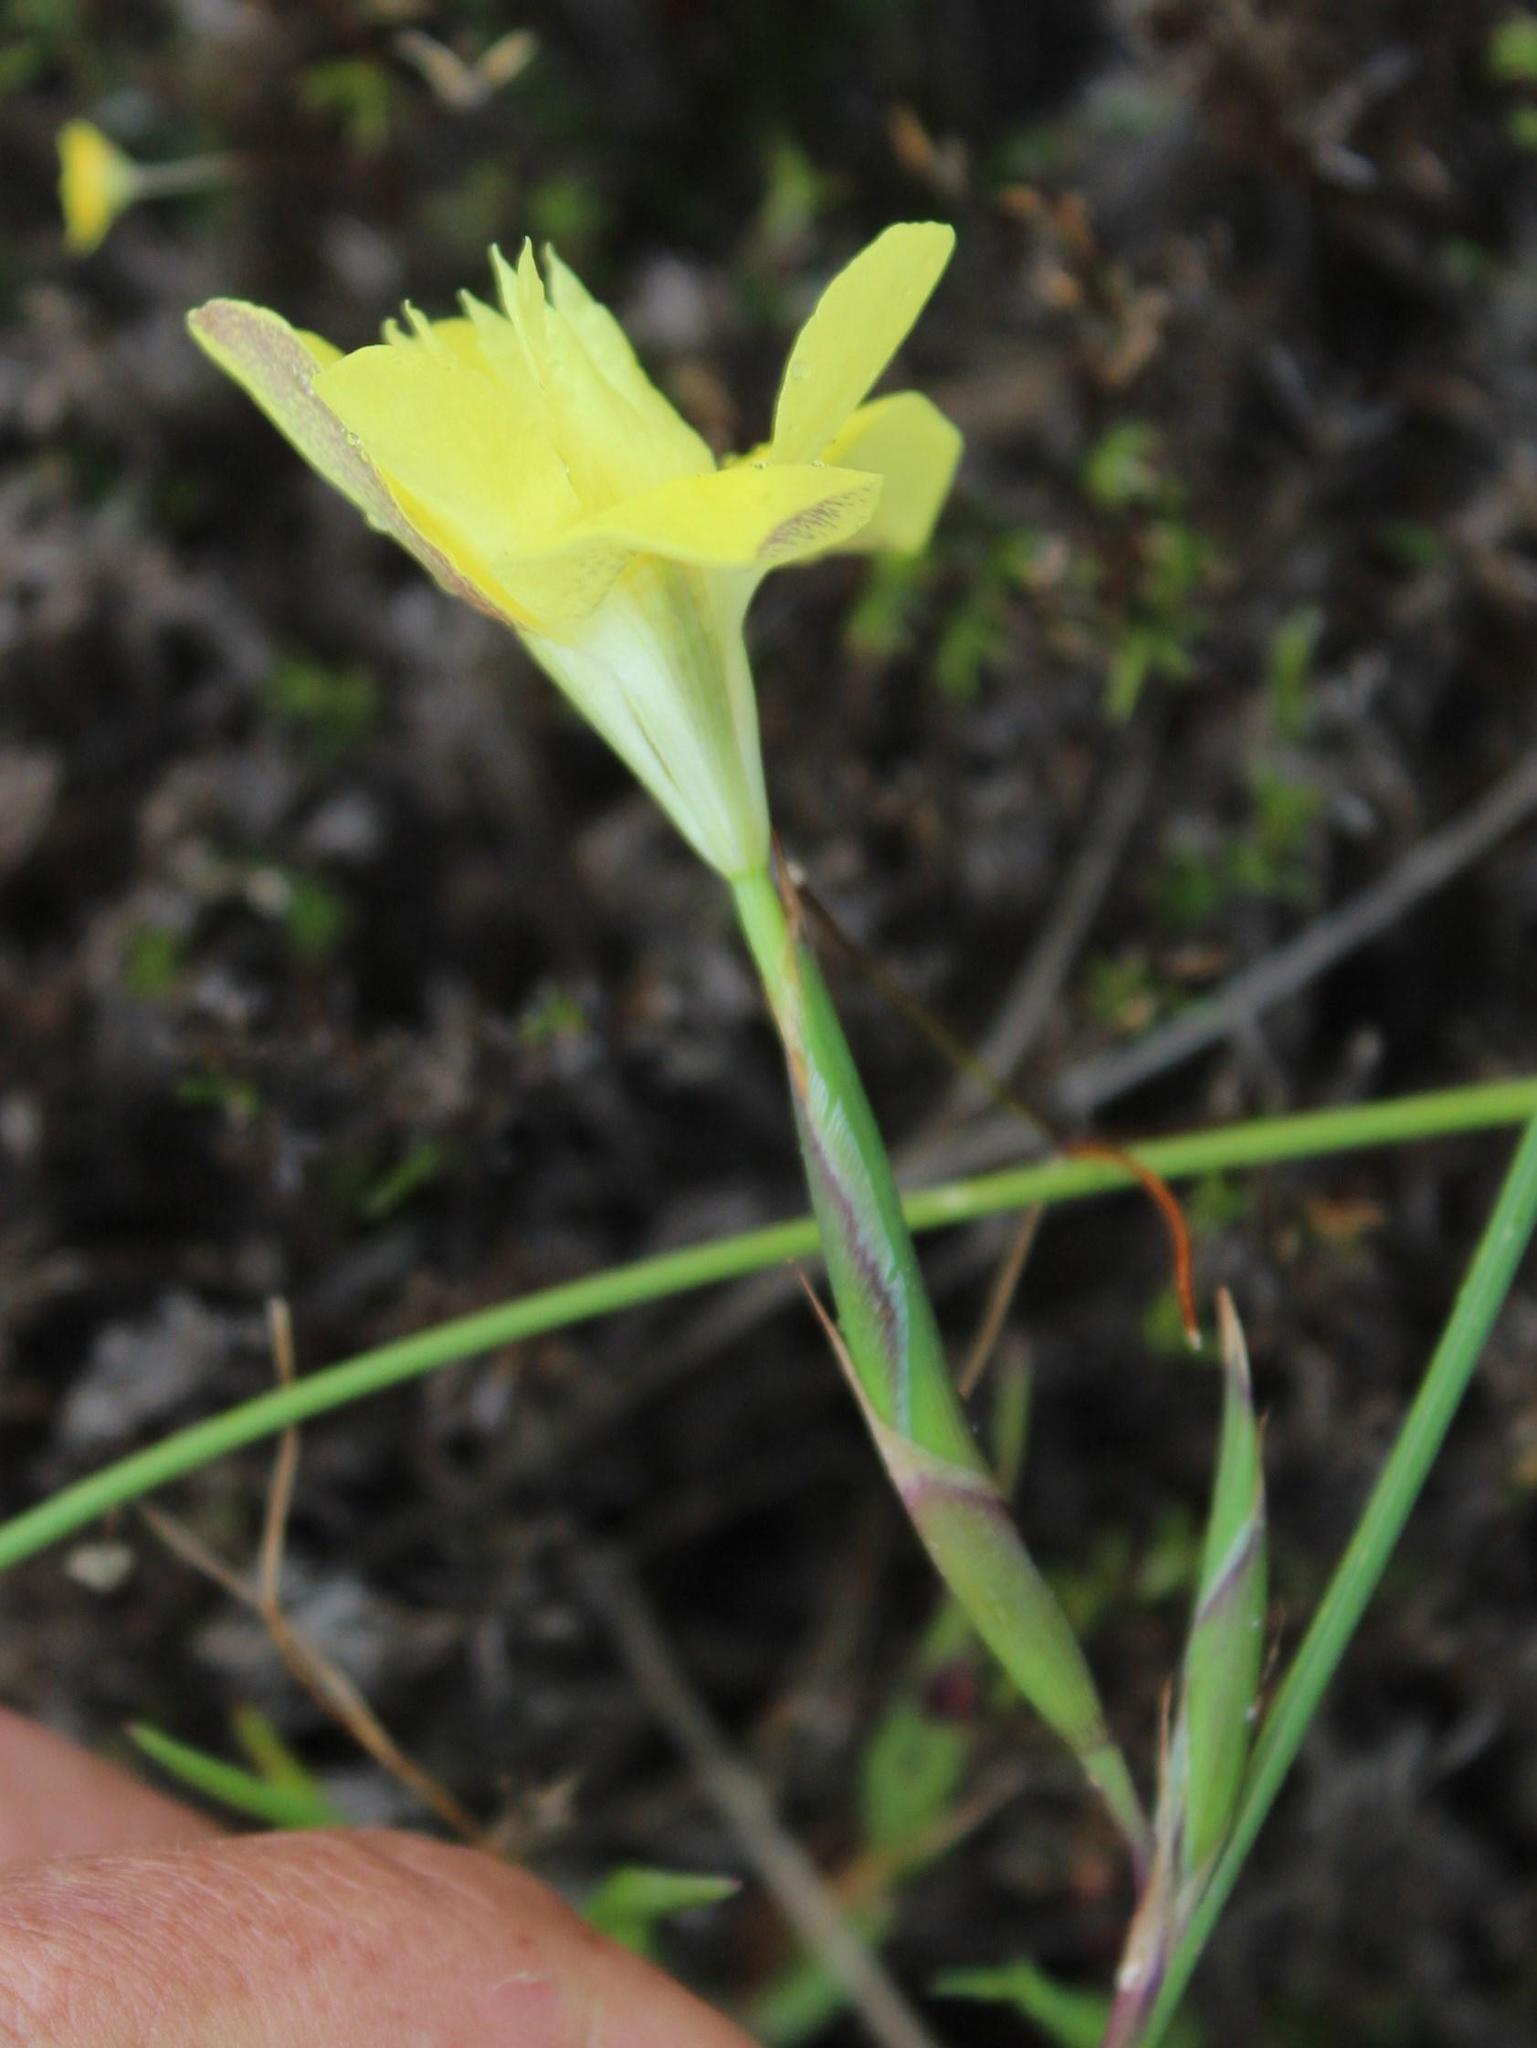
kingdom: Plantae
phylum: Tracheophyta
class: Liliopsida
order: Asparagales
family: Iridaceae
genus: Moraea
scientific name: Moraea fugax
